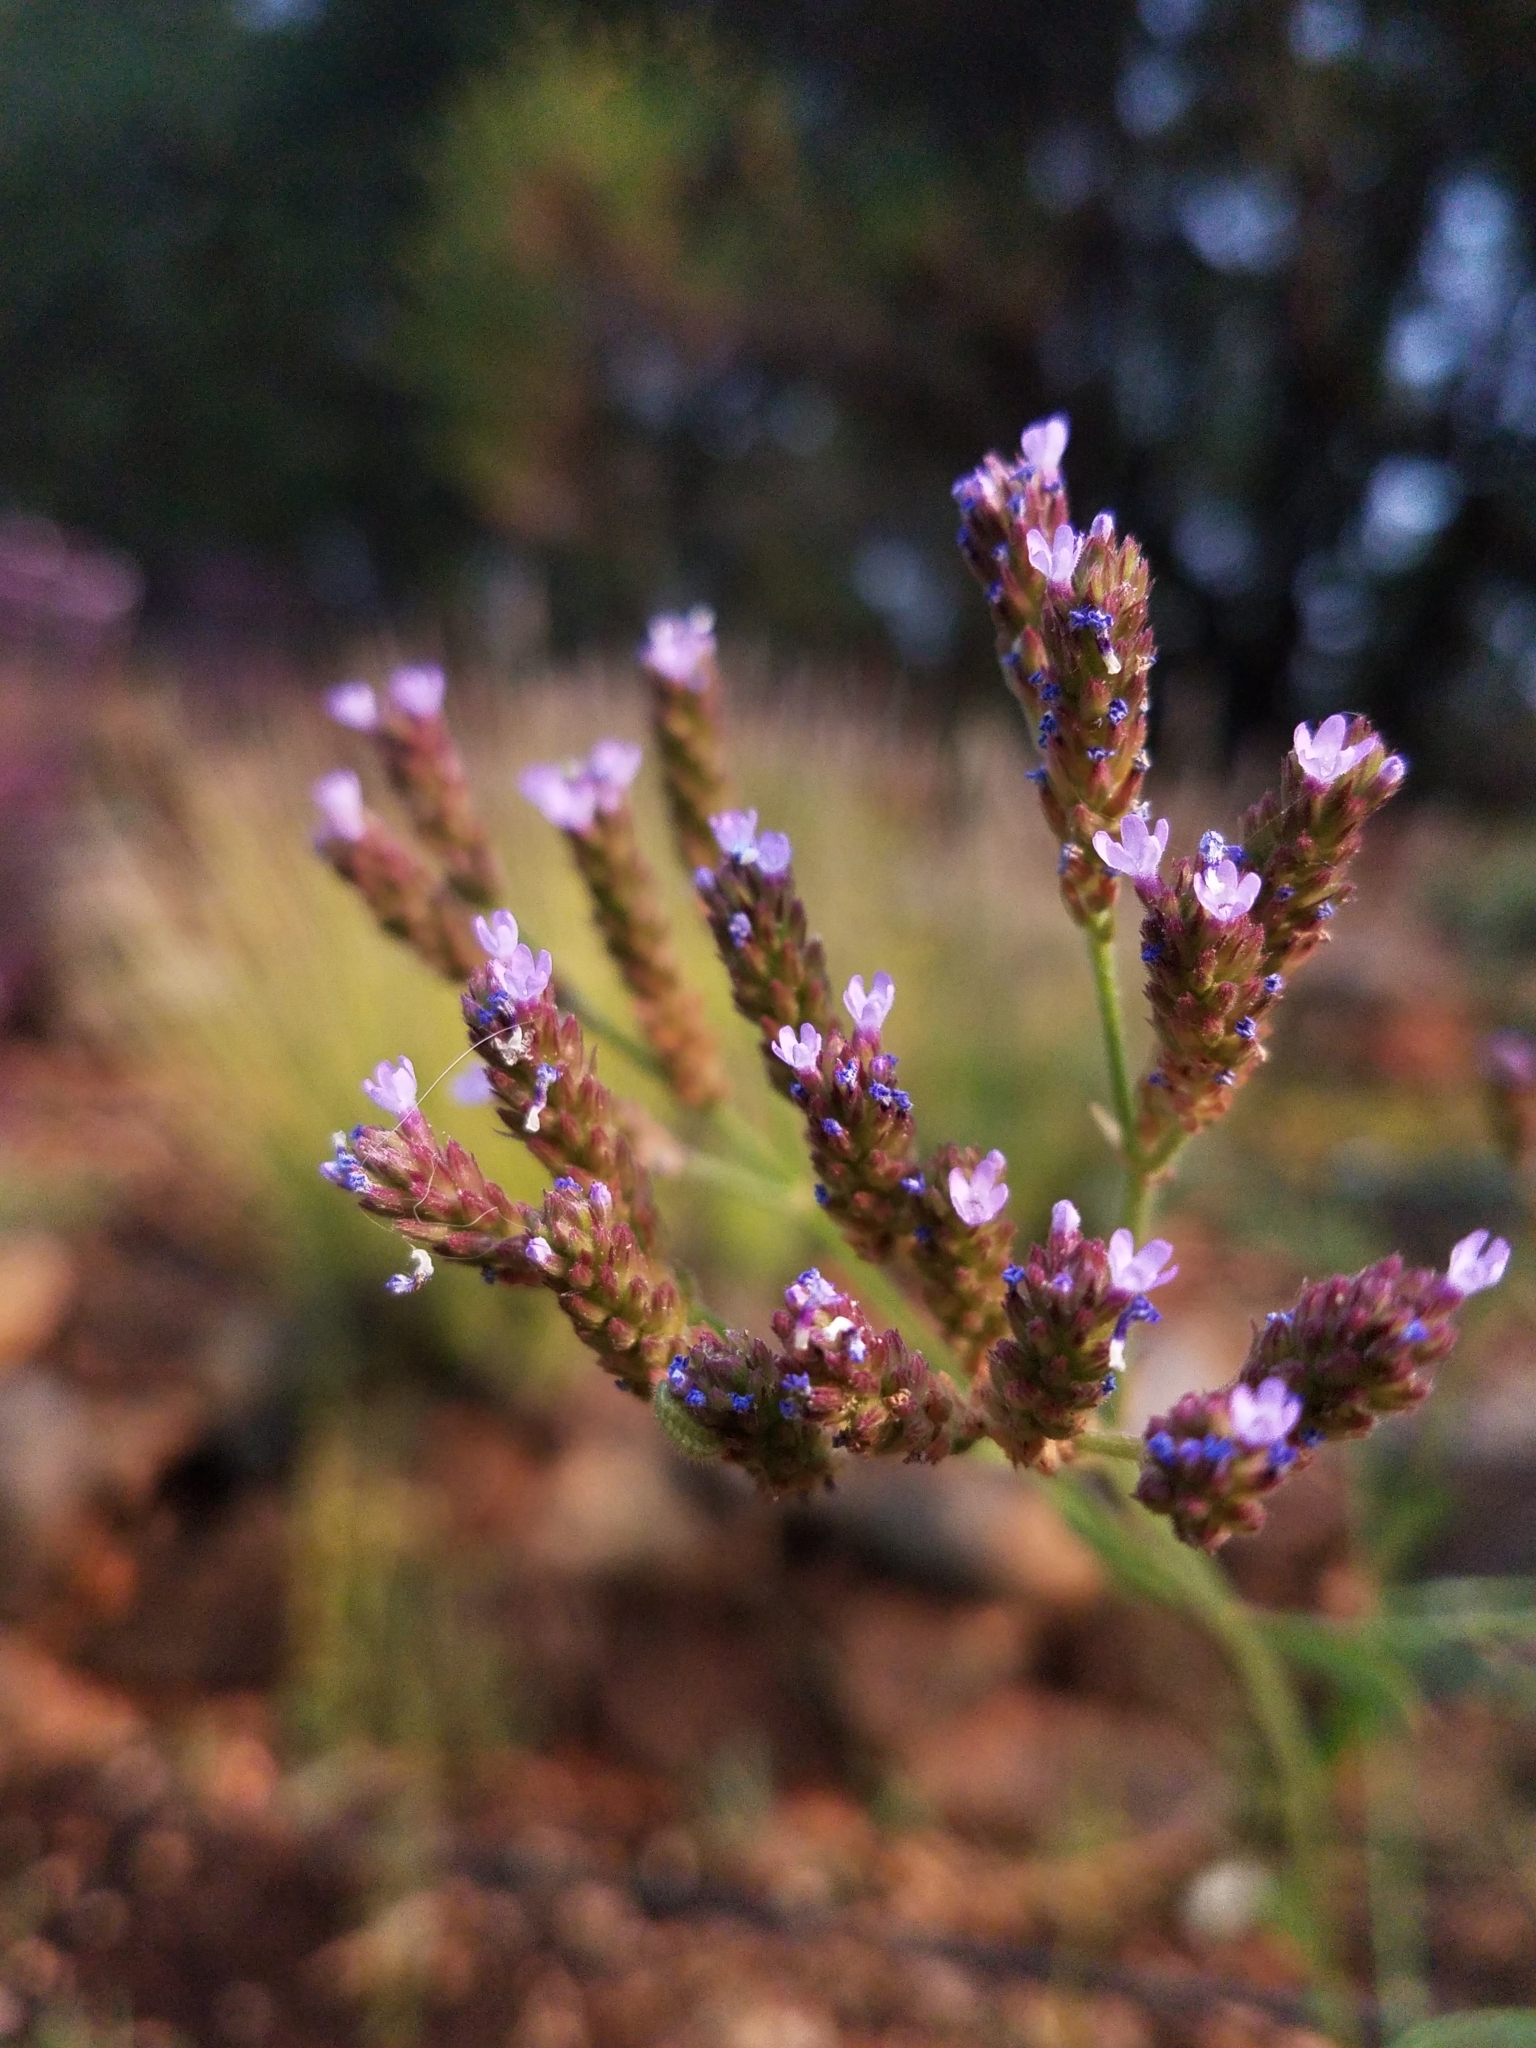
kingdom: Plantae
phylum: Tracheophyta
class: Magnoliopsida
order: Lamiales
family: Verbenaceae
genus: Verbena
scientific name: Verbena hastata
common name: American blue vervain
